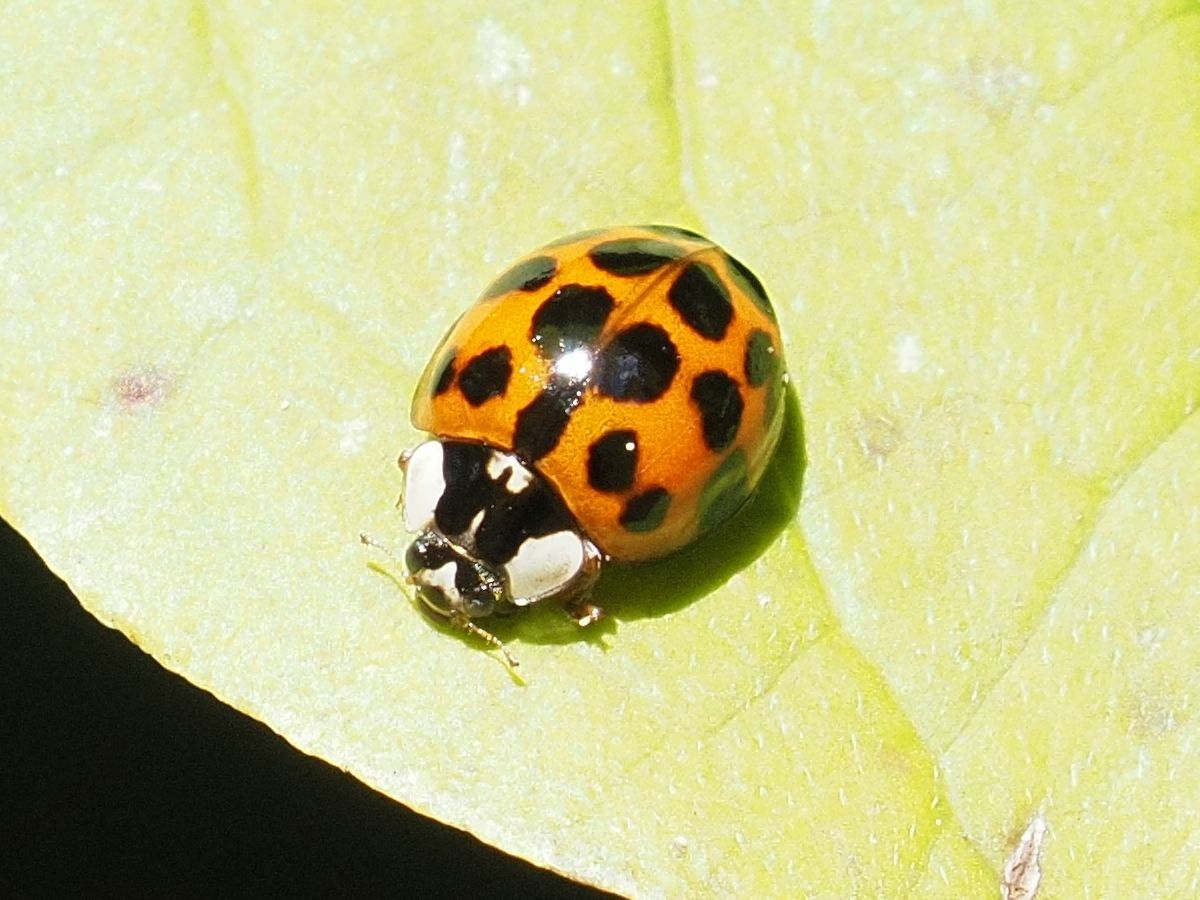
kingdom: Animalia
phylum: Arthropoda
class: Insecta
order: Coleoptera
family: Coccinellidae
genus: Harmonia
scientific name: Harmonia axyridis
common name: Harlequin ladybird
